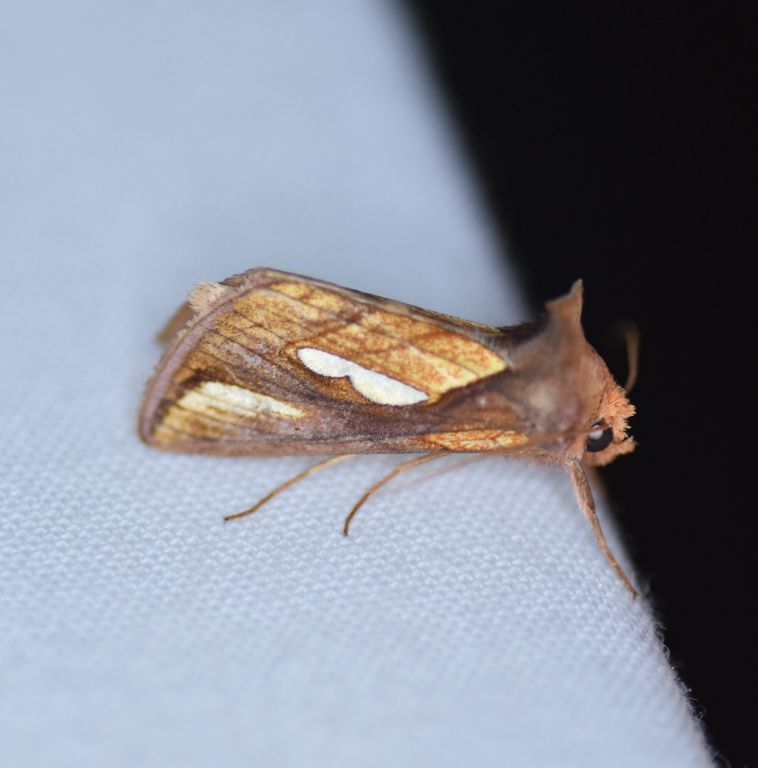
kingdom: Animalia
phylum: Arthropoda
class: Insecta
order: Lepidoptera
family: Noctuidae
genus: Plusia
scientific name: Plusia contexta
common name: Connected looper moth
